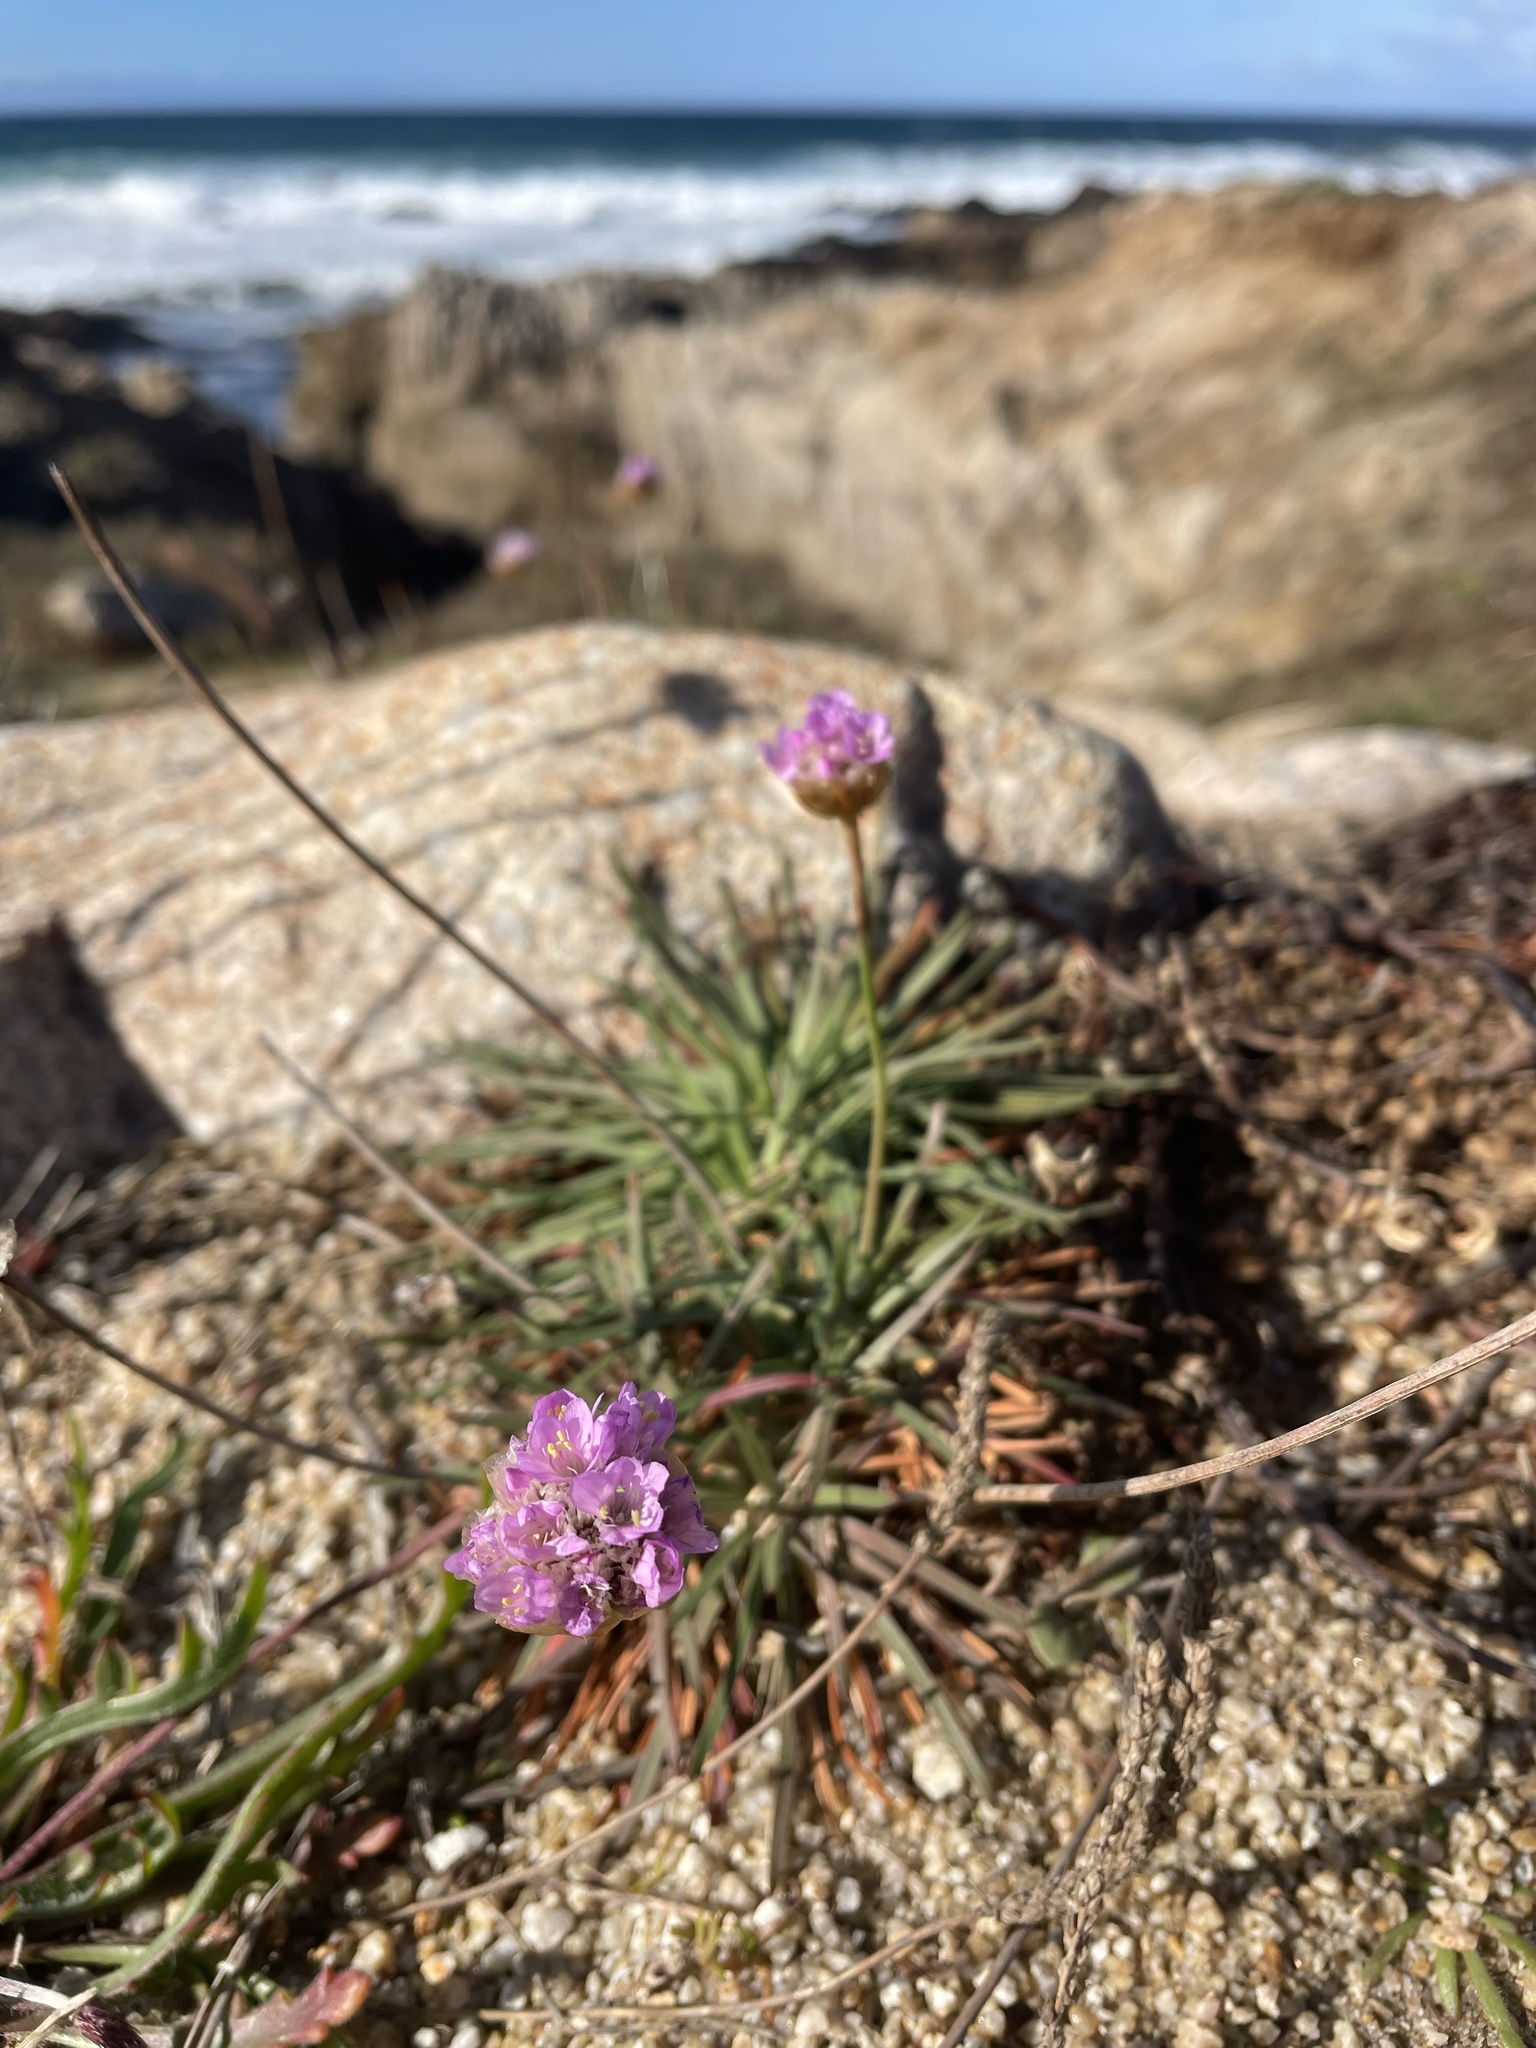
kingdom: Plantae
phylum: Tracheophyta
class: Magnoliopsida
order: Caryophyllales
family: Plumbaginaceae
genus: Armeria
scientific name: Armeria maritima
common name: Thrift
